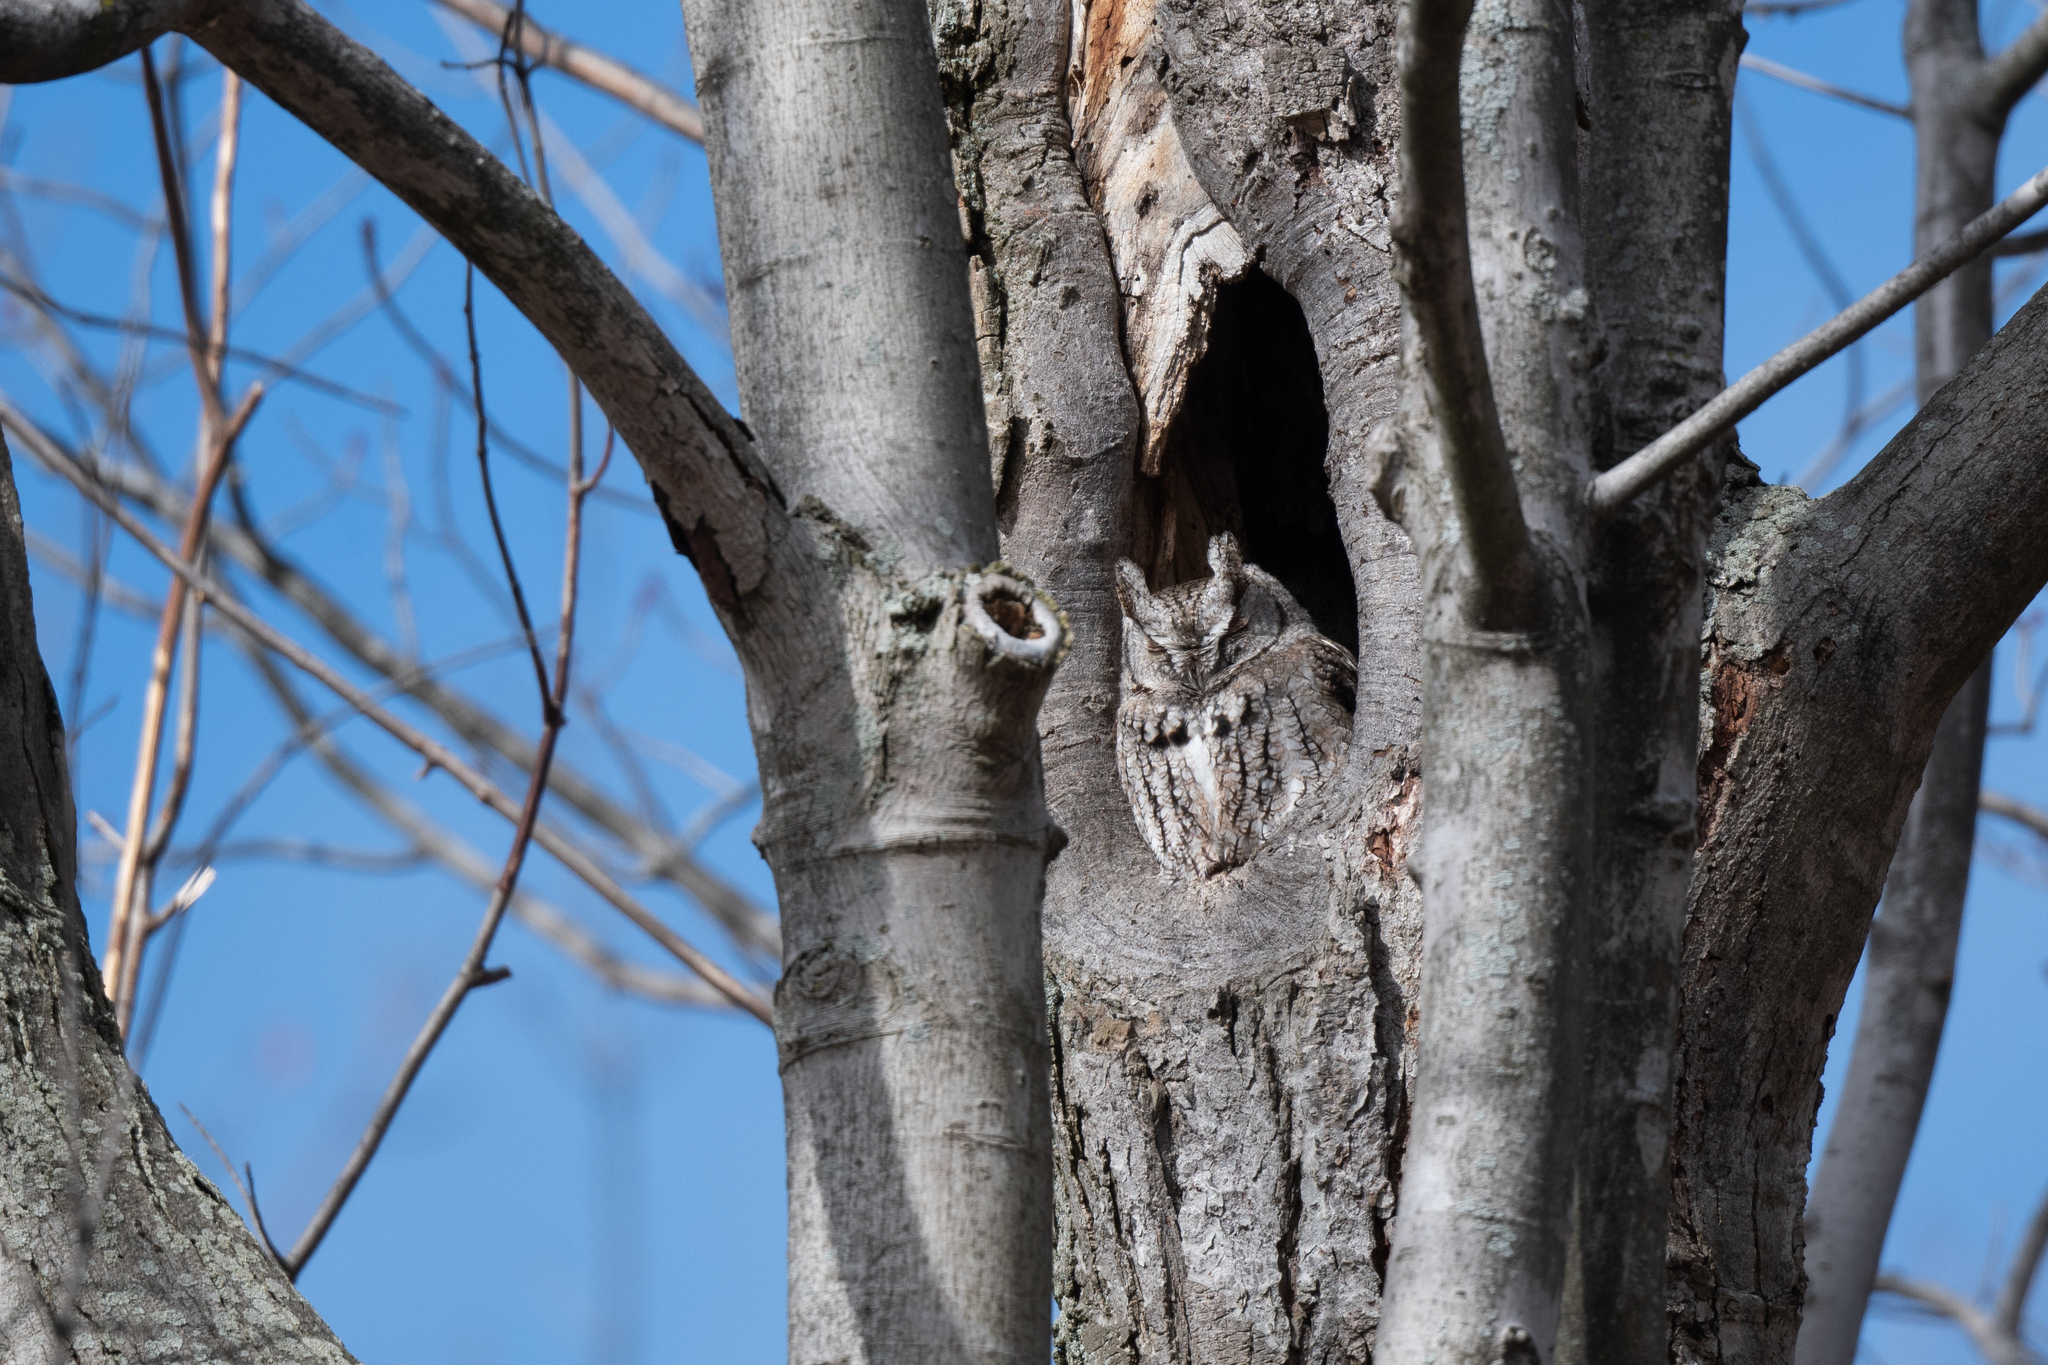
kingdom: Animalia
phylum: Chordata
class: Aves
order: Strigiformes
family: Strigidae
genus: Megascops
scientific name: Megascops asio
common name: Eastern screech-owl
